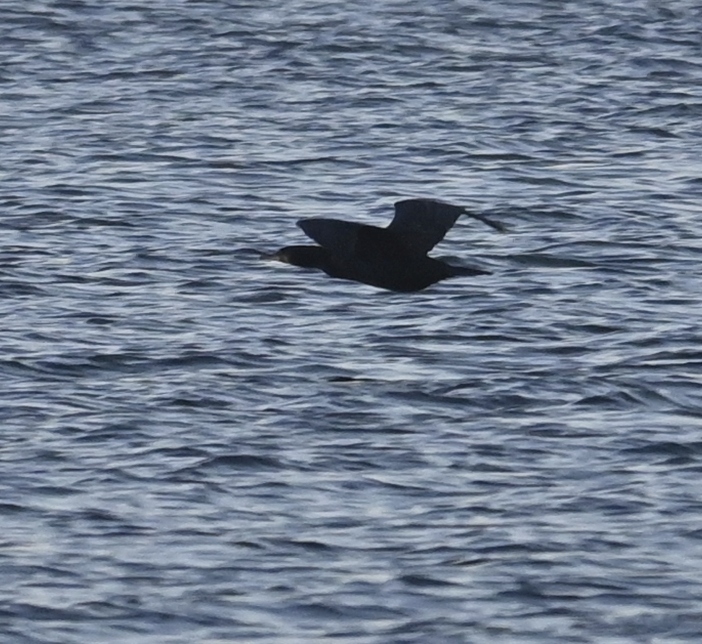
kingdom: Animalia
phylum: Chordata
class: Aves
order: Suliformes
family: Phalacrocoracidae
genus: Phalacrocorax
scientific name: Phalacrocorax carbo
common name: Great cormorant
